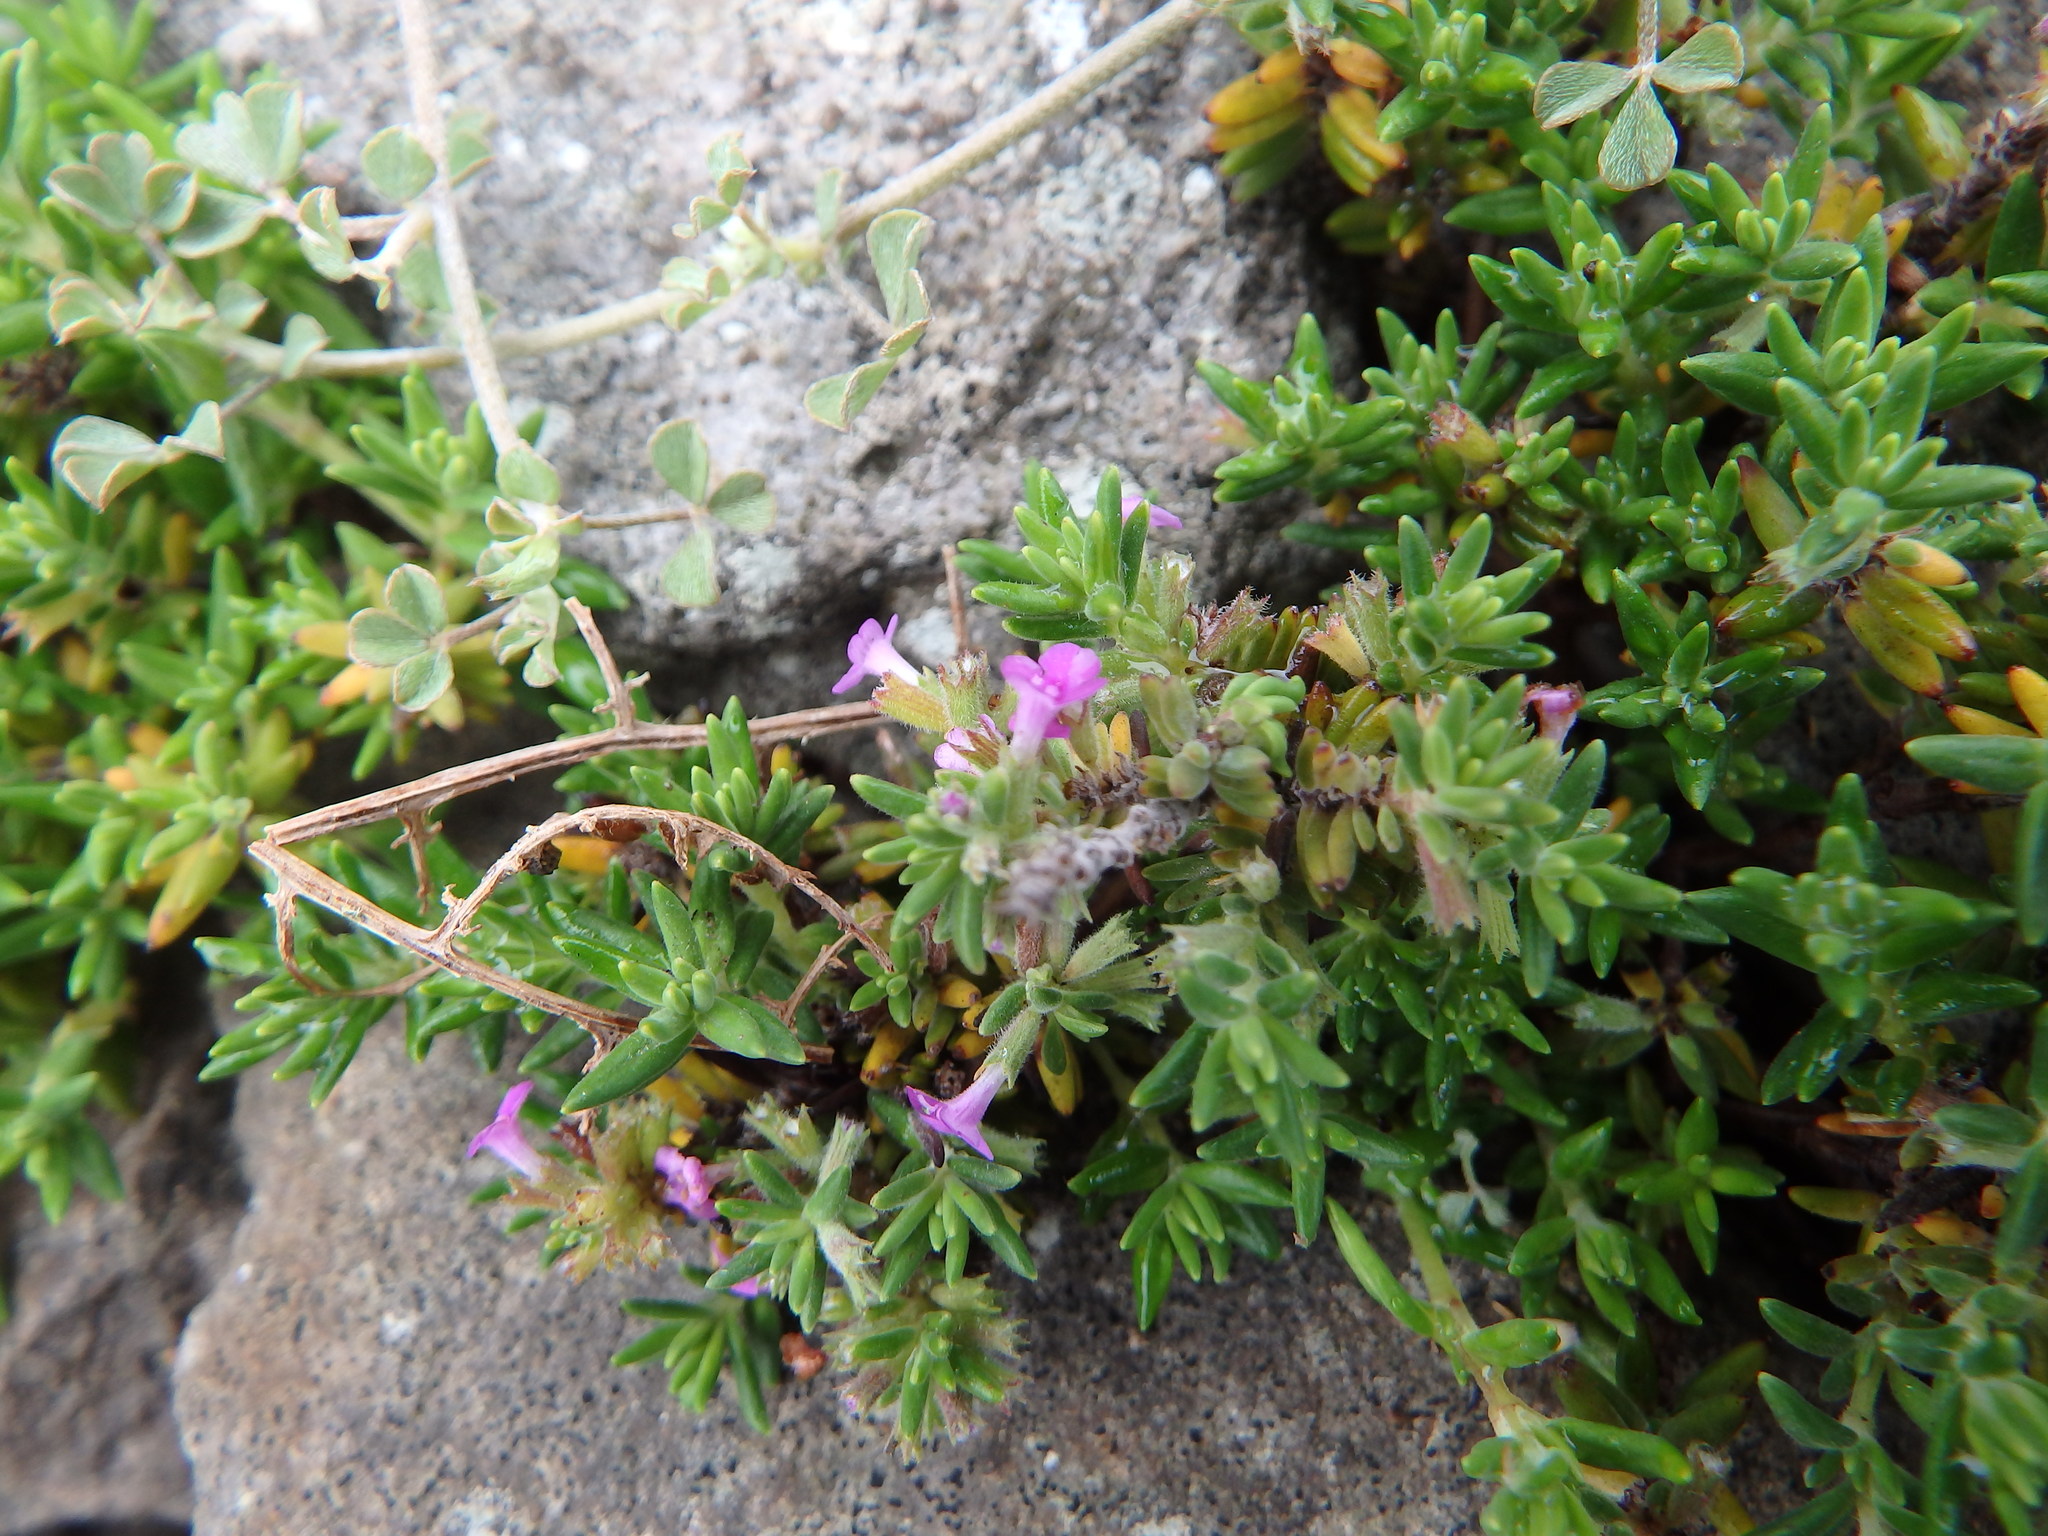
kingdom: Plantae
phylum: Tracheophyta
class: Magnoliopsida
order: Lamiales
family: Lamiaceae
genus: Micromeria
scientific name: Micromeria maderensis
